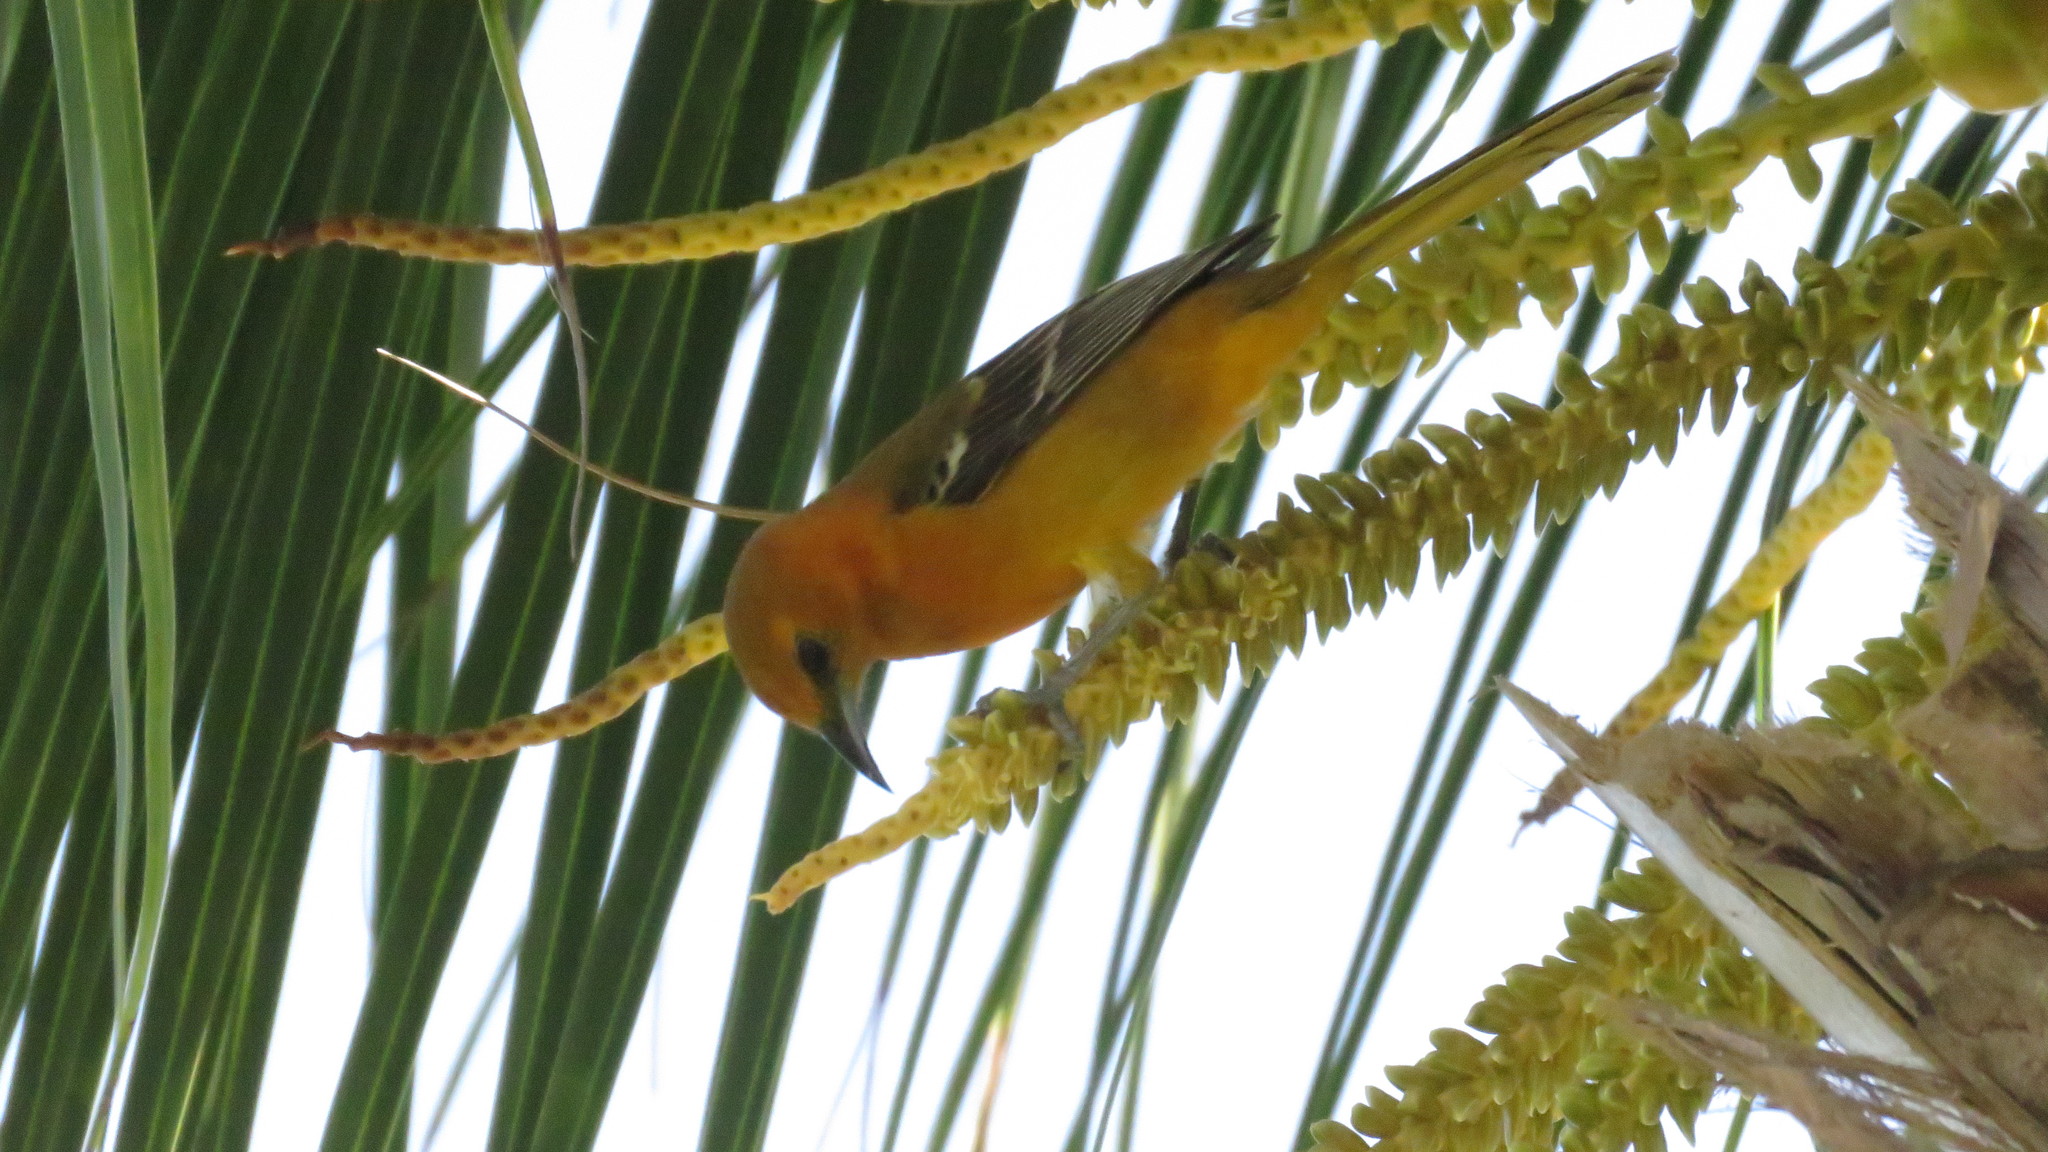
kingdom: Animalia
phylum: Chordata
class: Aves
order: Passeriformes
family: Icteridae
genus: Icterus
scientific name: Icterus cucullatus
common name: Hooded oriole
